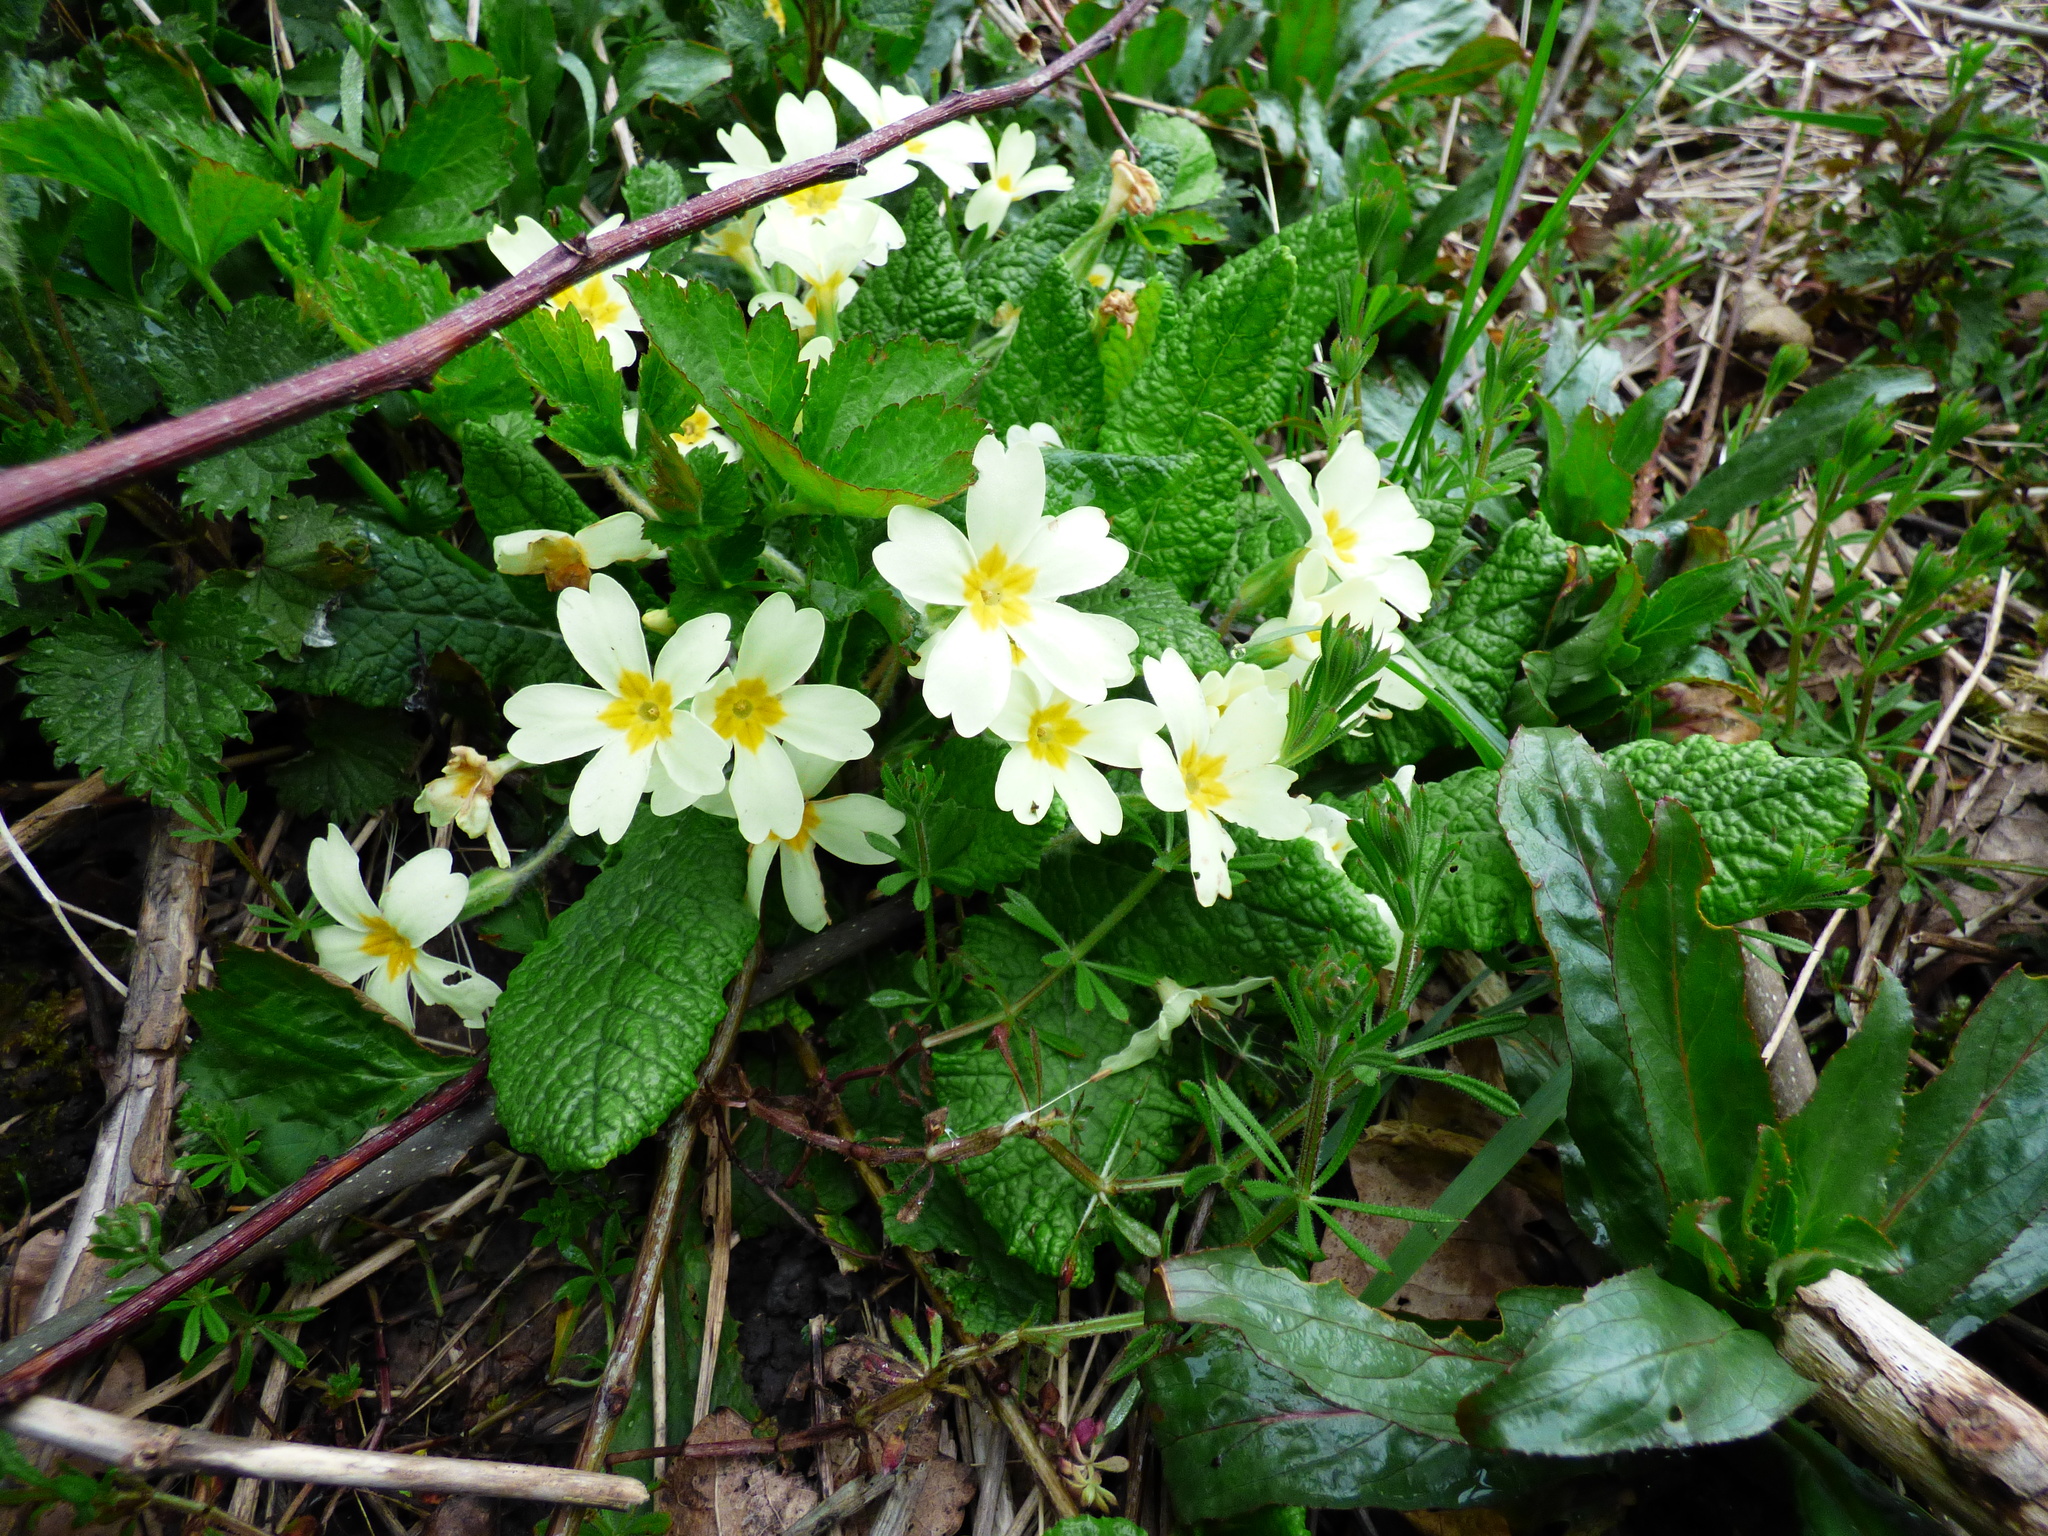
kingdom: Plantae
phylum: Tracheophyta
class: Magnoliopsida
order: Ericales
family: Primulaceae
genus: Primula
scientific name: Primula vulgaris
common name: Primrose
